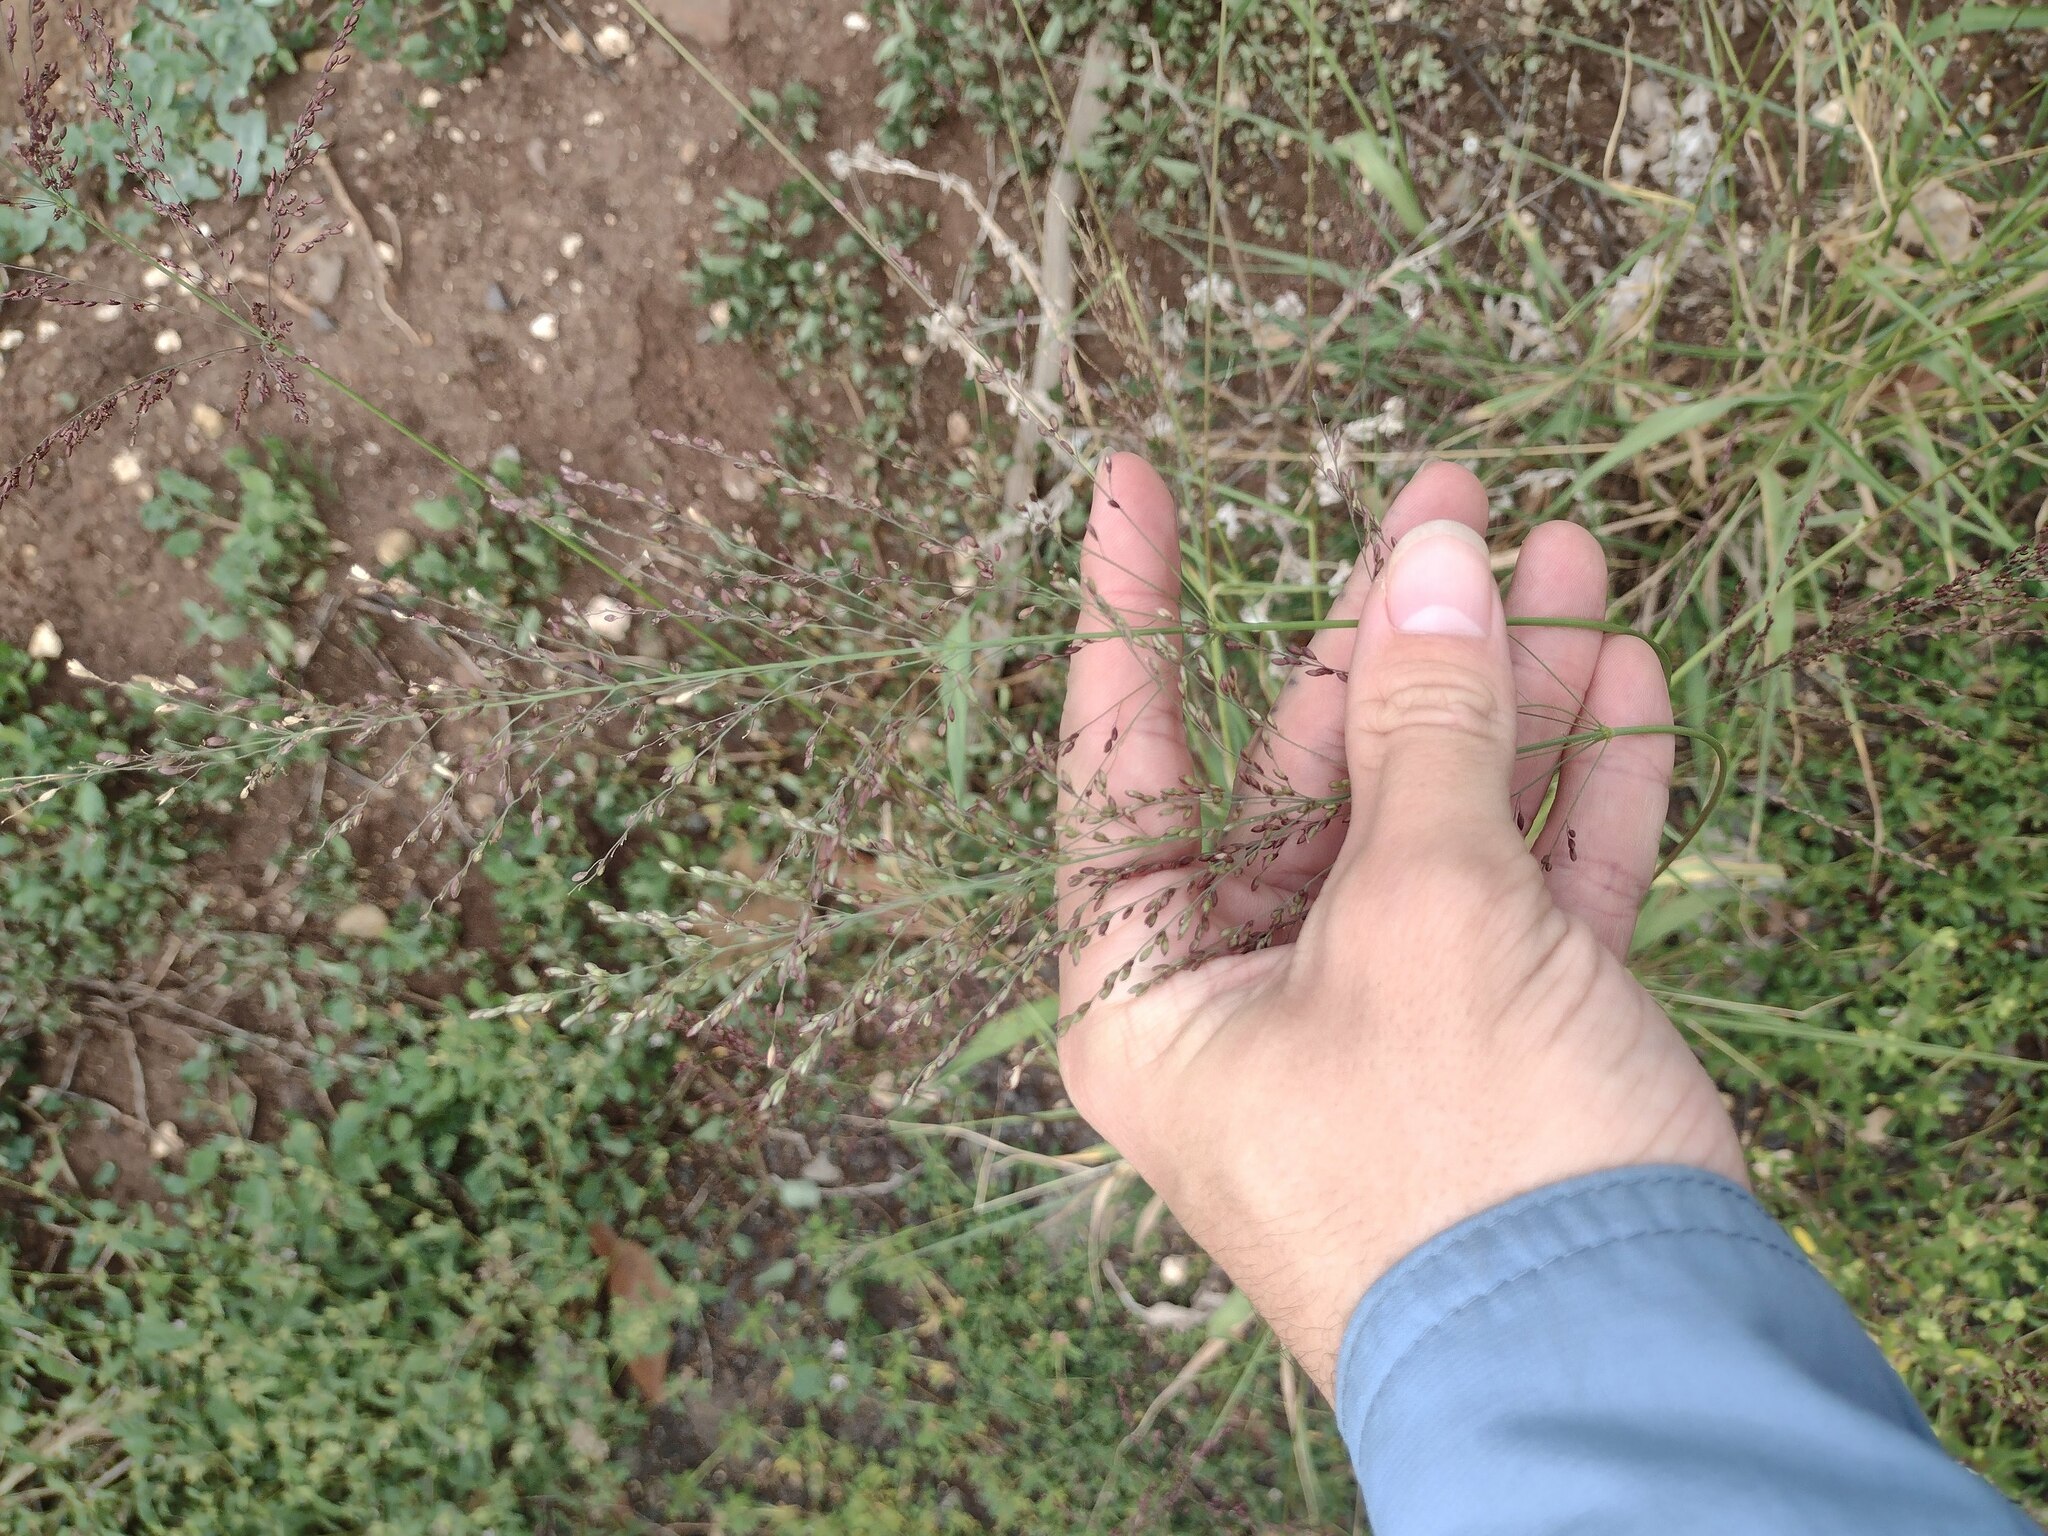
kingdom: Plantae
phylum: Tracheophyta
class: Liliopsida
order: Poales
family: Poaceae
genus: Megathyrsus
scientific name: Megathyrsus maximus
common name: Guineagrass
